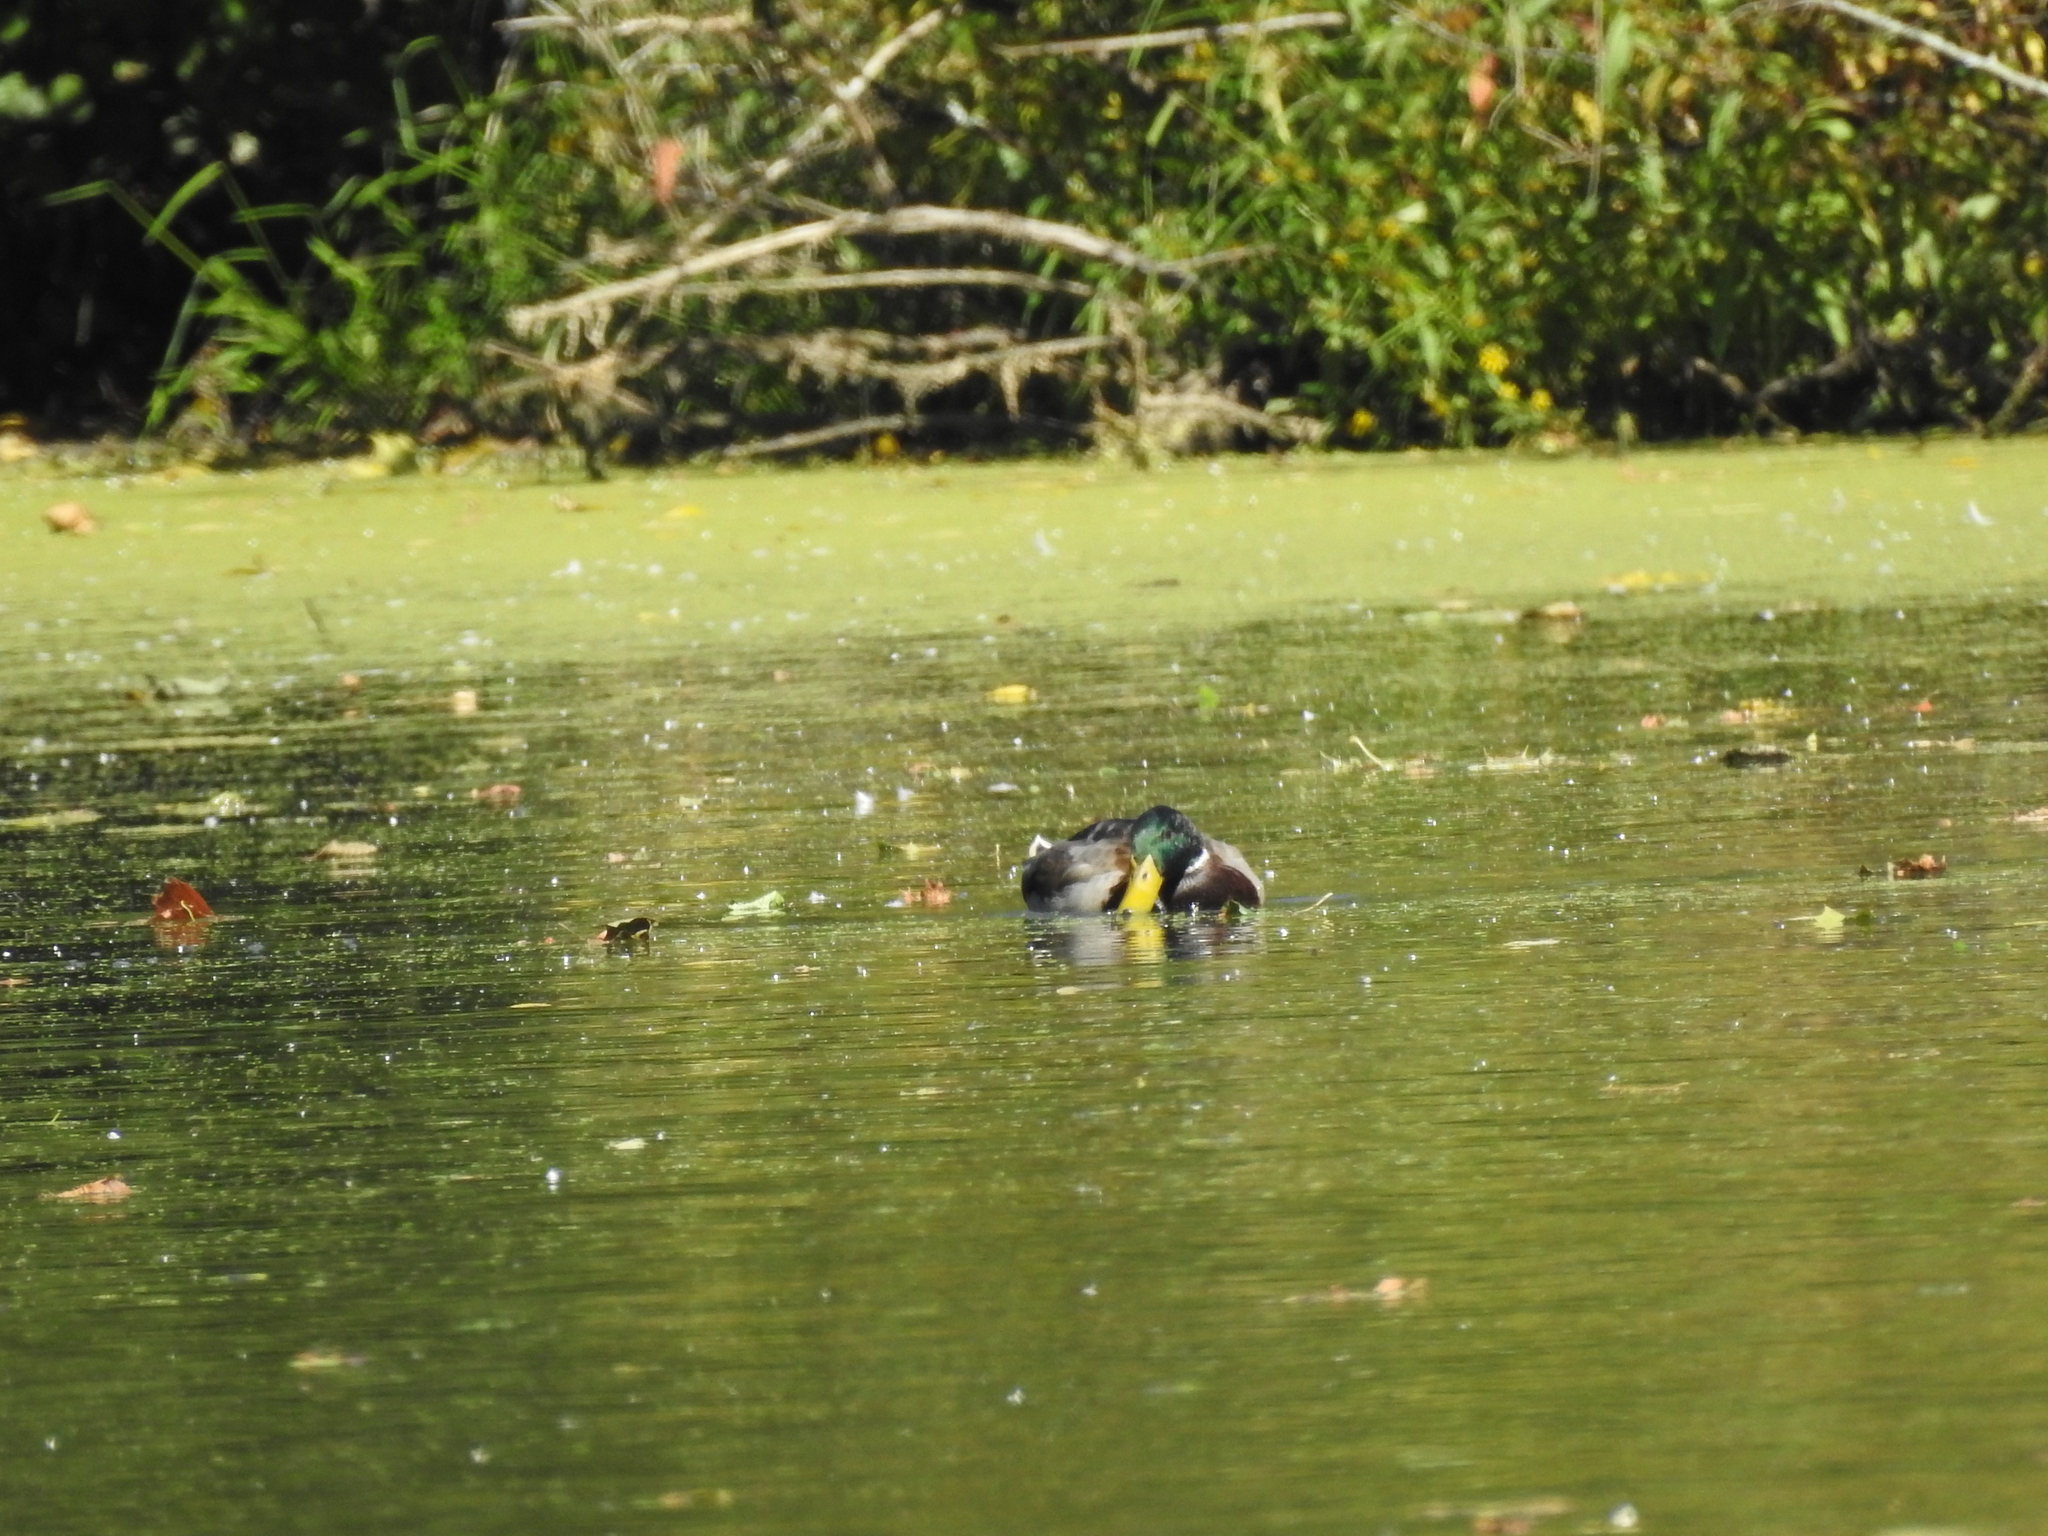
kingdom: Animalia
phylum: Chordata
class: Aves
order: Anseriformes
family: Anatidae
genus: Anas
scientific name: Anas platyrhynchos
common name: Mallard
